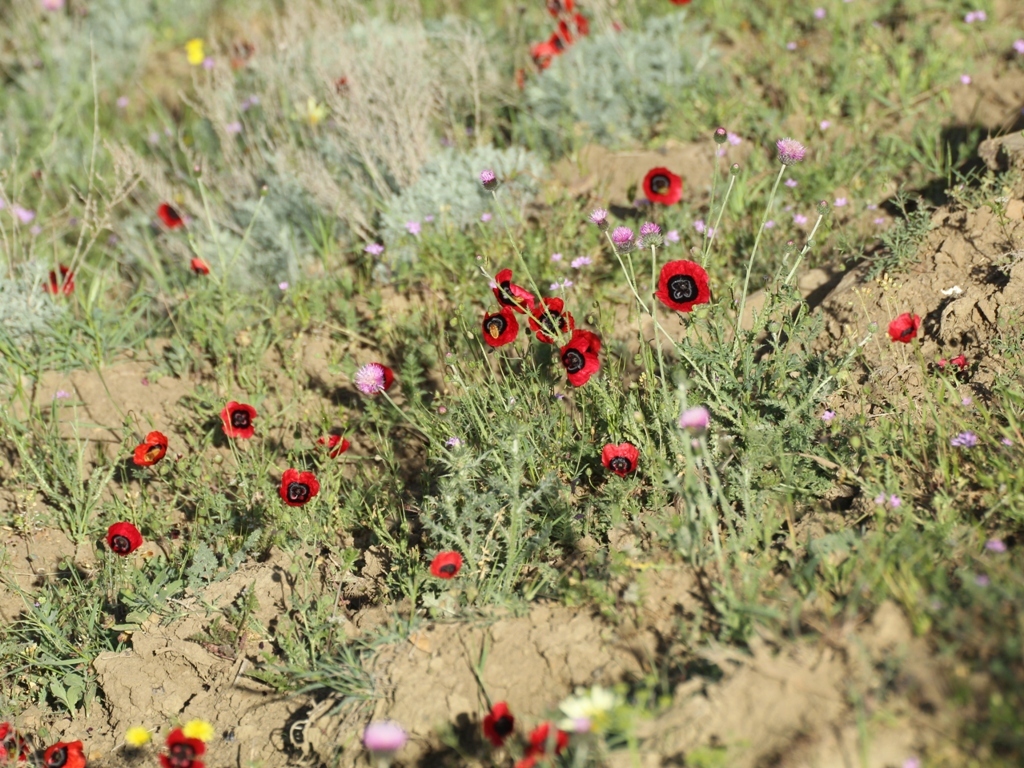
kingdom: Plantae
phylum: Tracheophyta
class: Magnoliopsida
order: Ranunculales
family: Papaveraceae
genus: Glaucium
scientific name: Glaucium corniculatum
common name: Red horned-poppy
